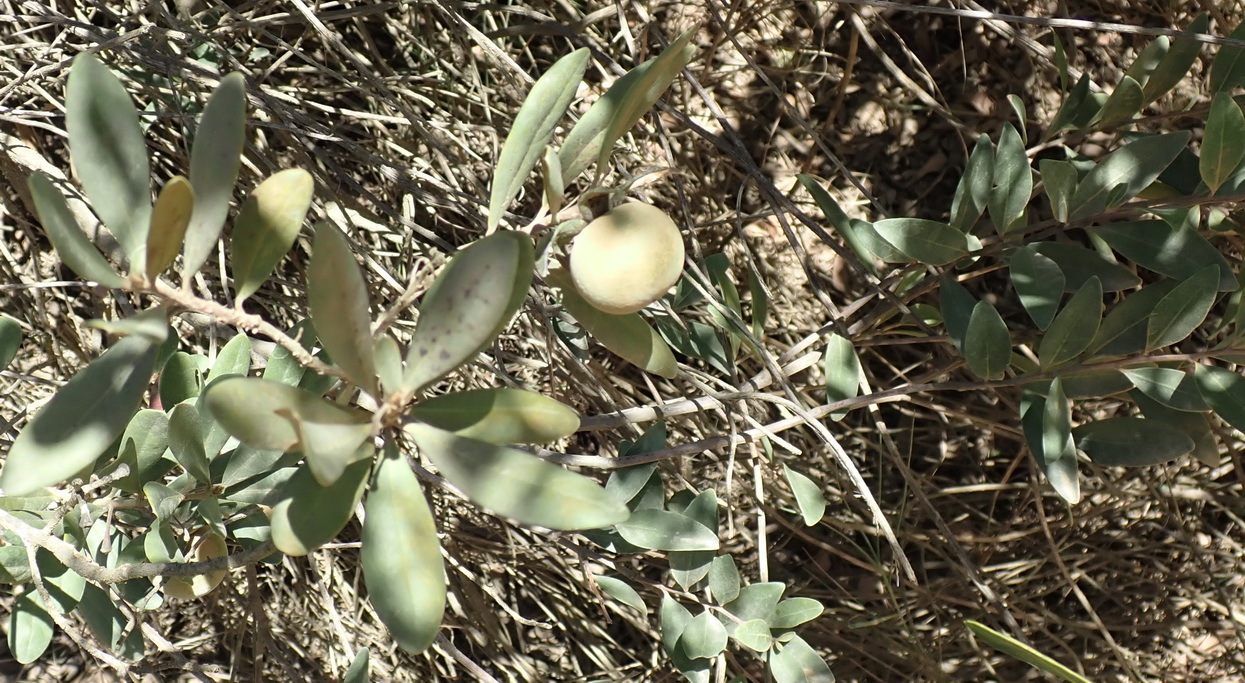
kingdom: Plantae
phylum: Tracheophyta
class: Magnoliopsida
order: Ericales
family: Ebenaceae
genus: Diospyros
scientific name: Diospyros dichrophylla
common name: Common star-apple
